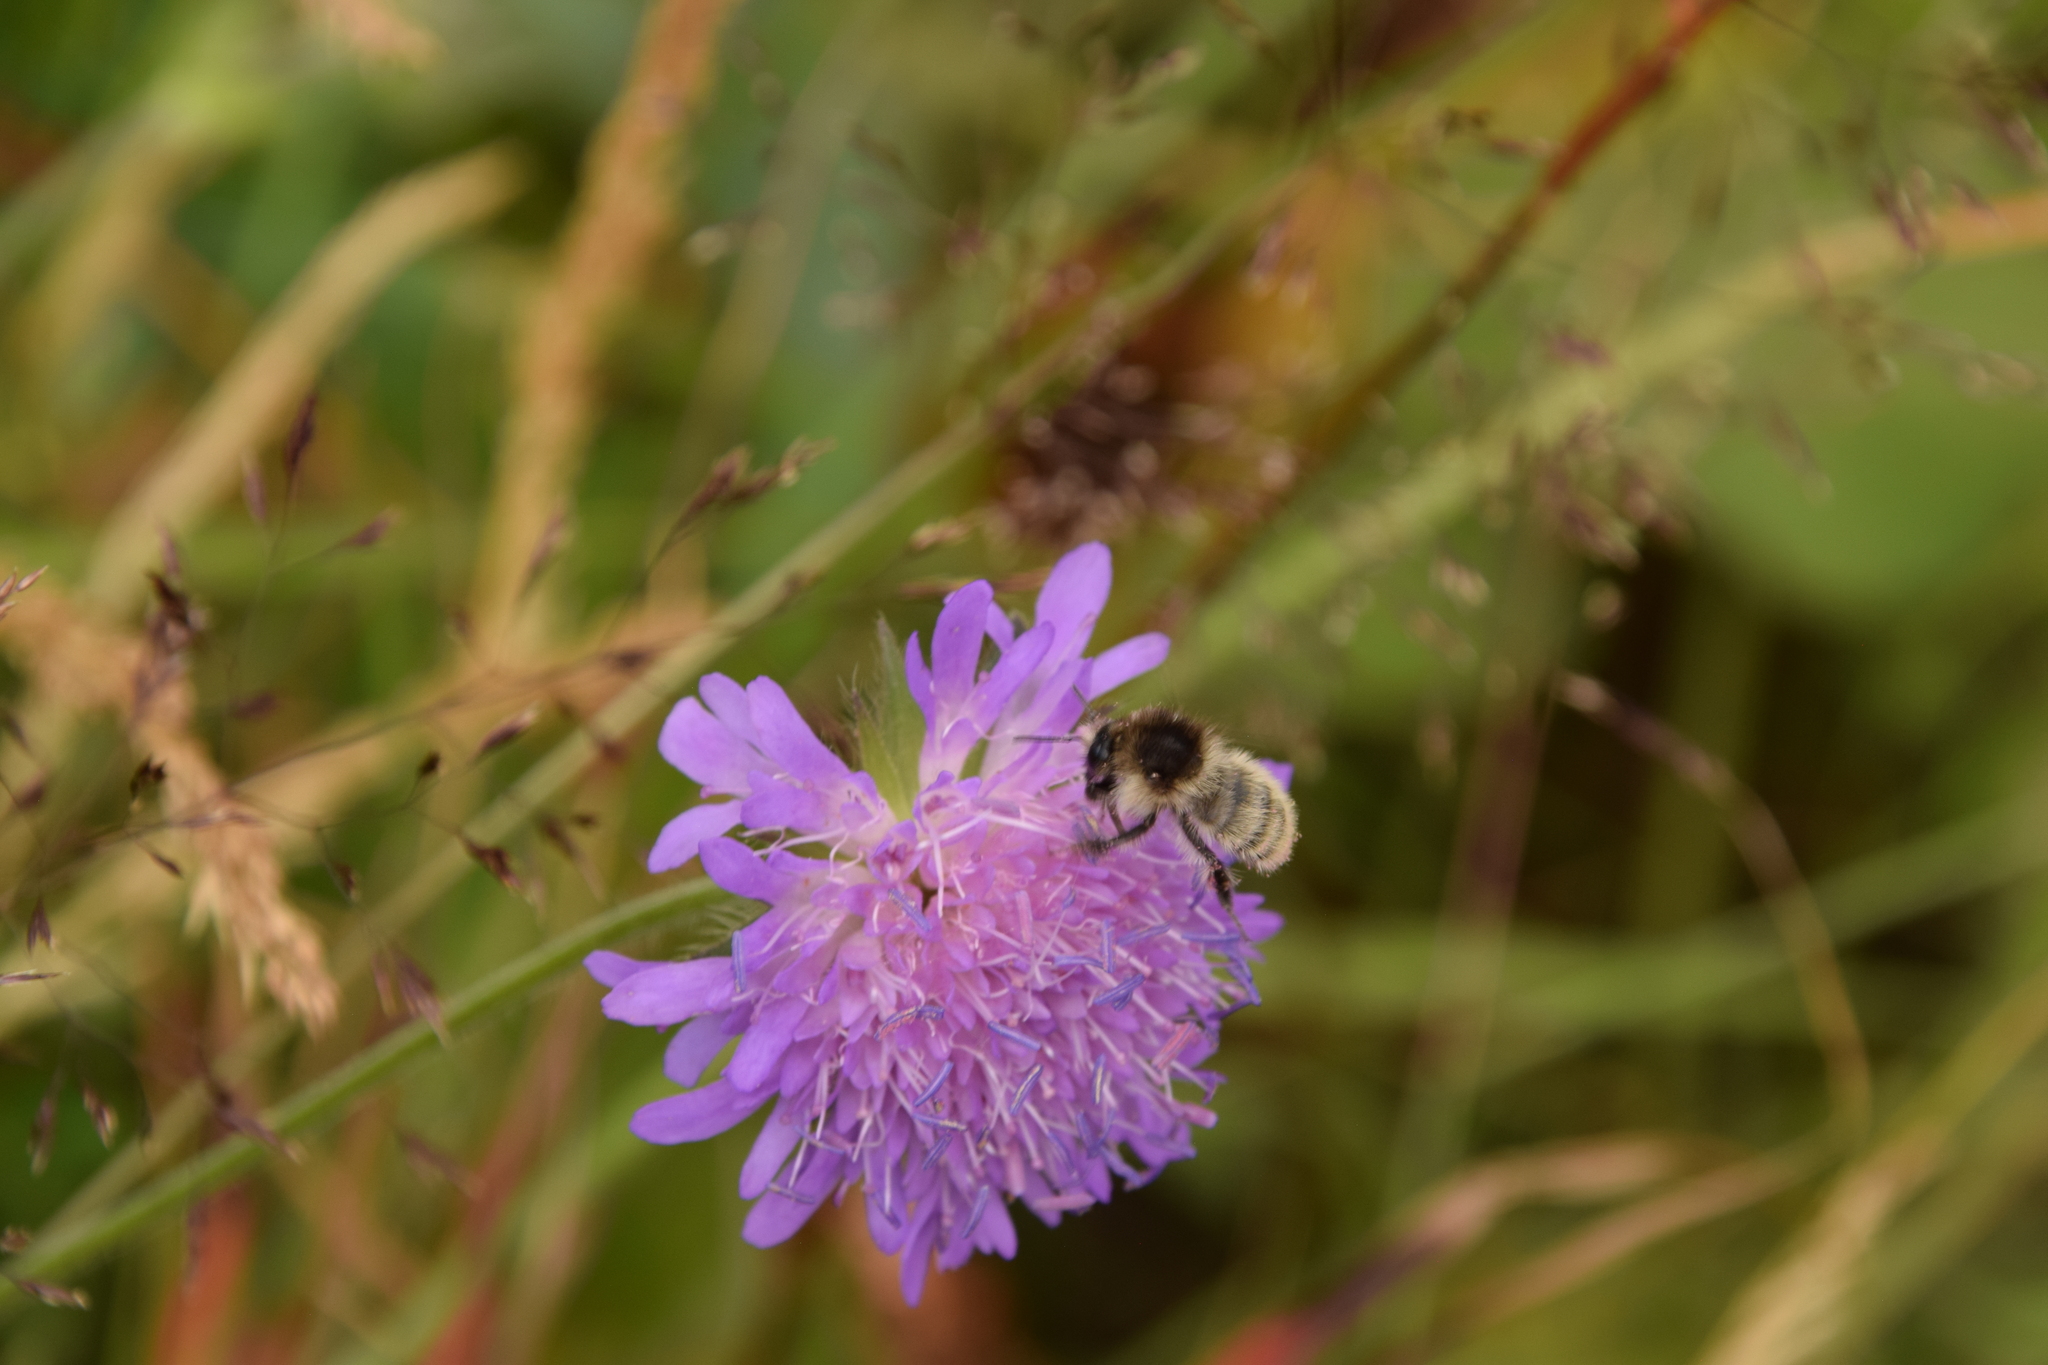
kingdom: Animalia
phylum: Arthropoda
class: Insecta
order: Hymenoptera
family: Apidae
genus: Bombus
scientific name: Bombus humilis
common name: Brown-banded carder-bee
